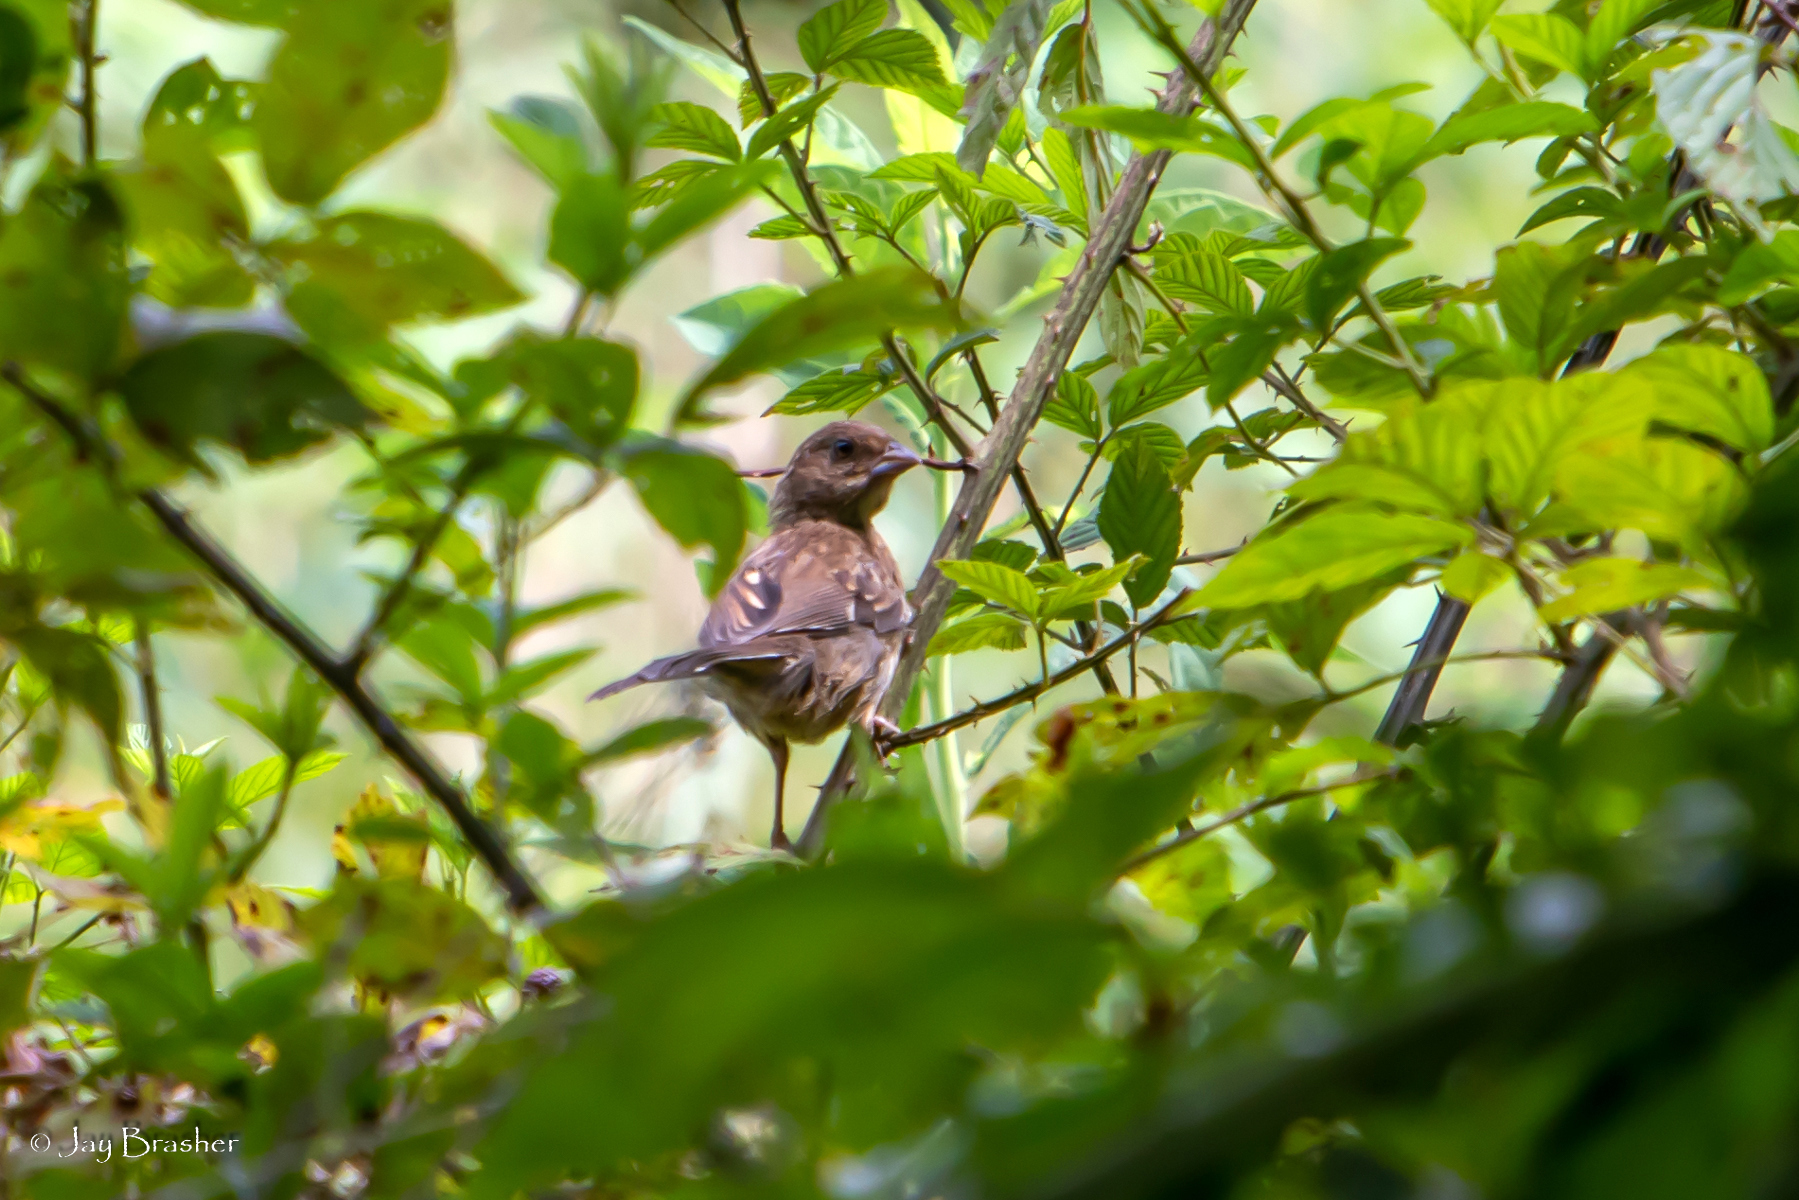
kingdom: Animalia
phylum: Chordata
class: Aves
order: Passeriformes
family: Passerellidae
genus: Pipilo
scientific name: Pipilo erythrophthalmus
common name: Eastern towhee
